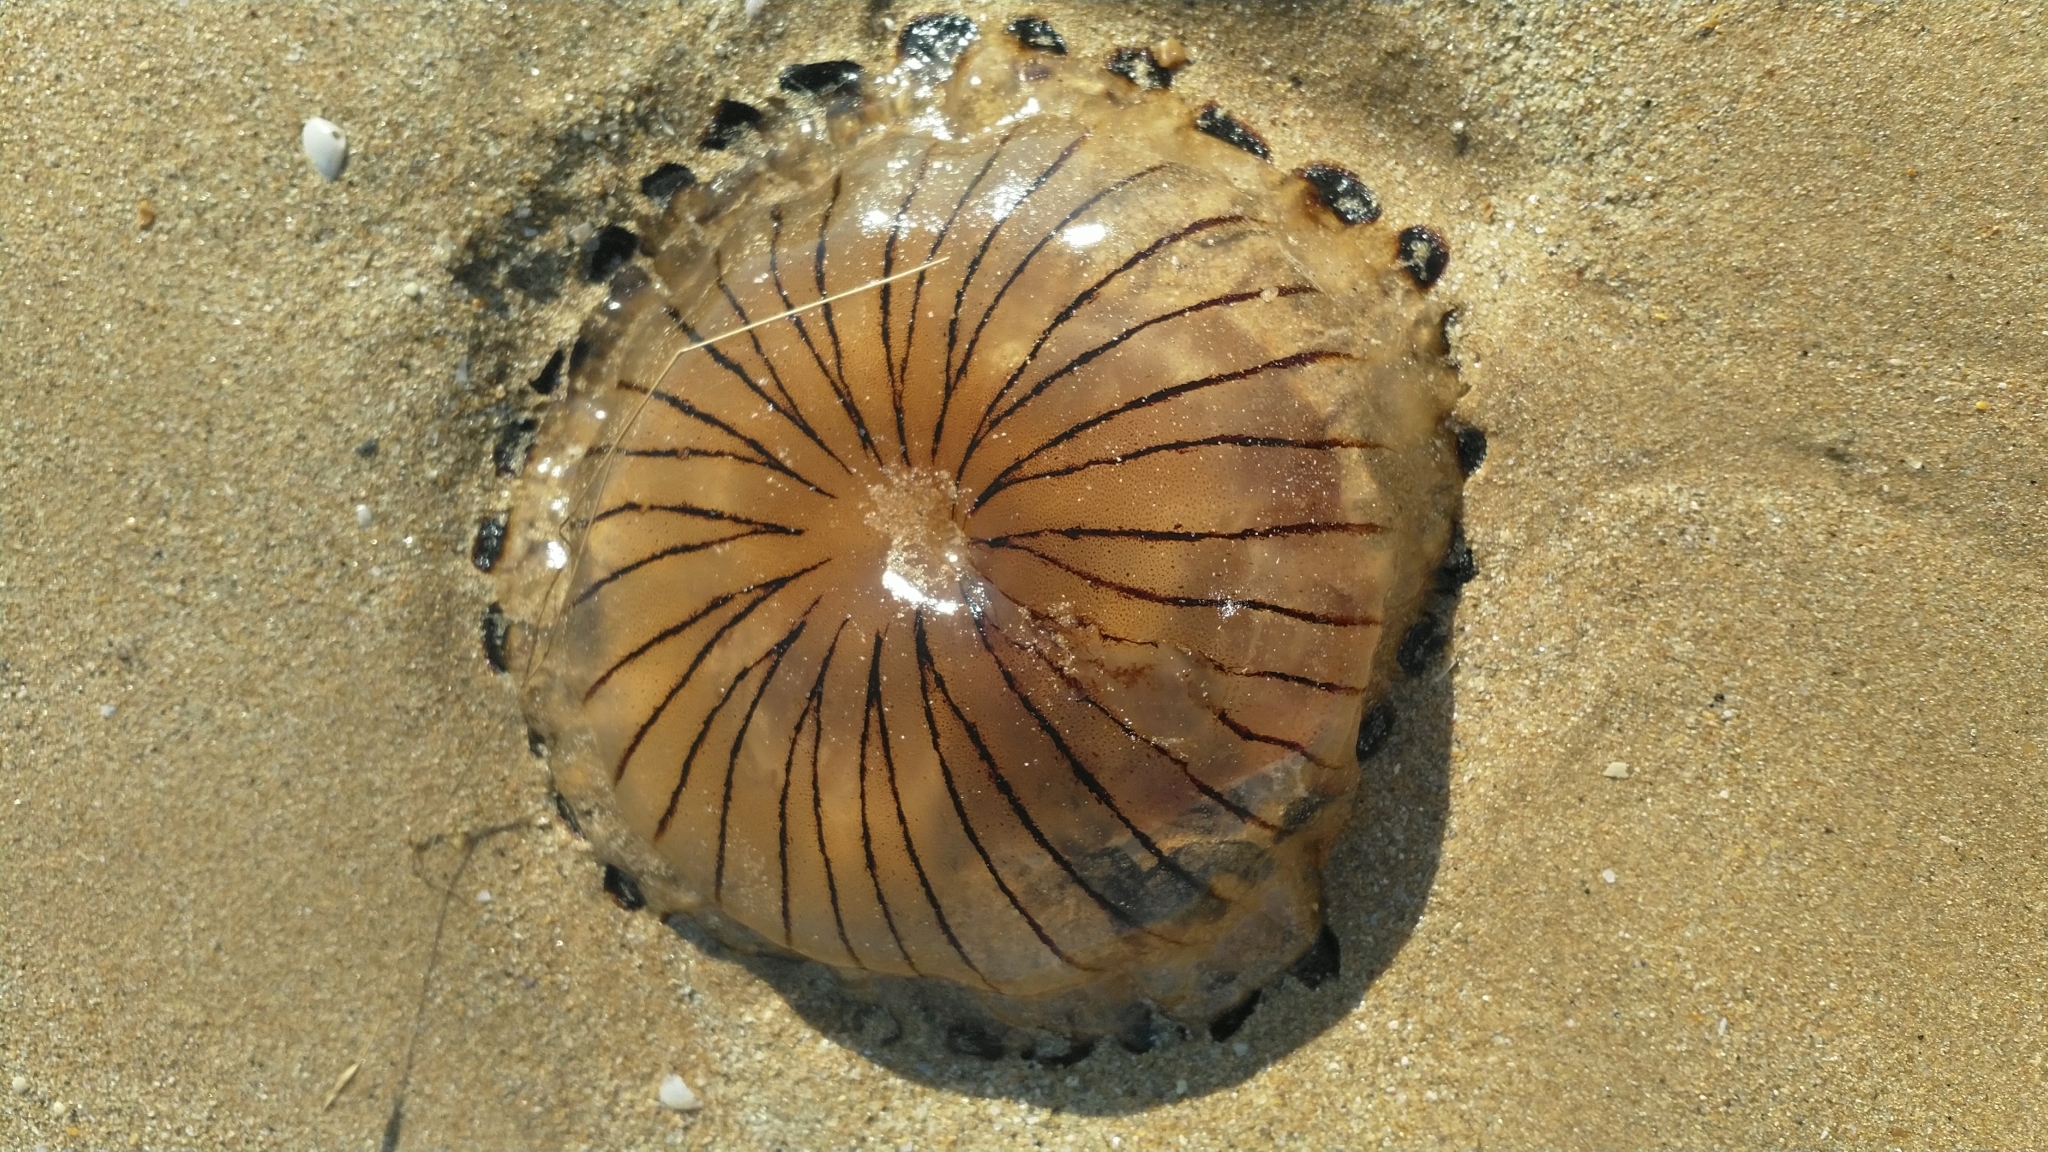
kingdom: Animalia
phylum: Cnidaria
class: Scyphozoa
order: Semaeostomeae
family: Pelagiidae
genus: Chrysaora
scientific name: Chrysaora hysoscella
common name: Compass jellyfish
